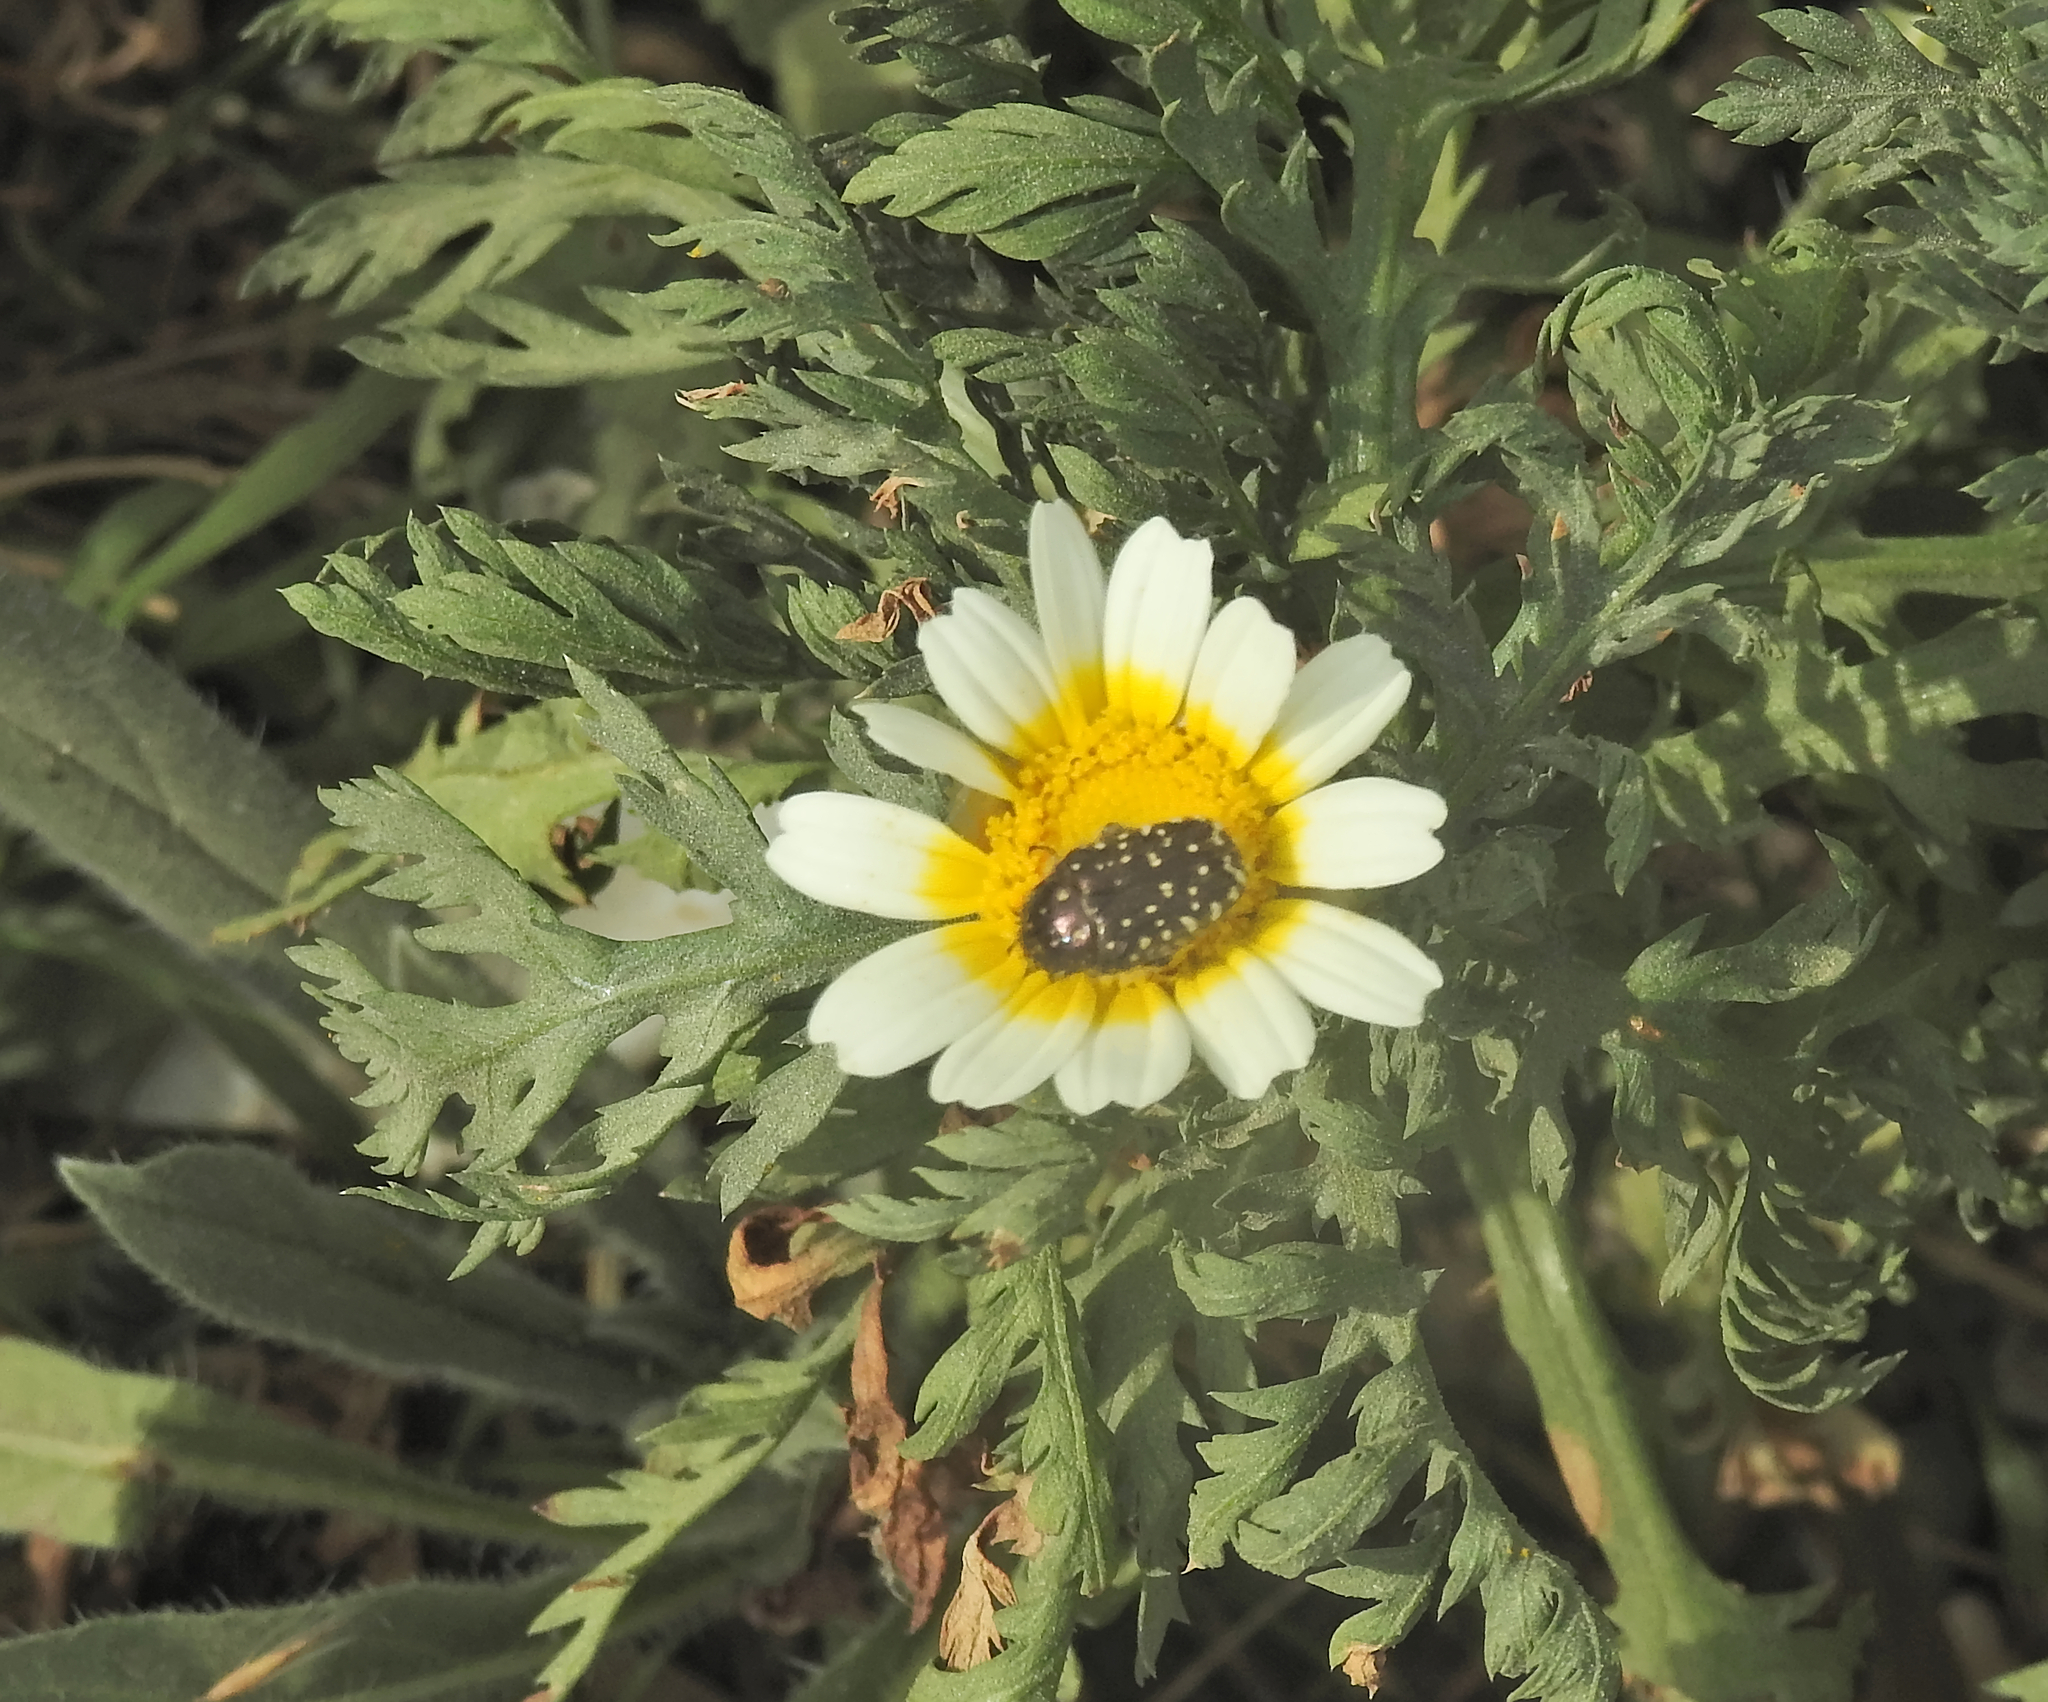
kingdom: Animalia
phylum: Arthropoda
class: Insecta
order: Coleoptera
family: Scarabaeidae
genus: Oxythyrea
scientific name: Oxythyrea funesta
